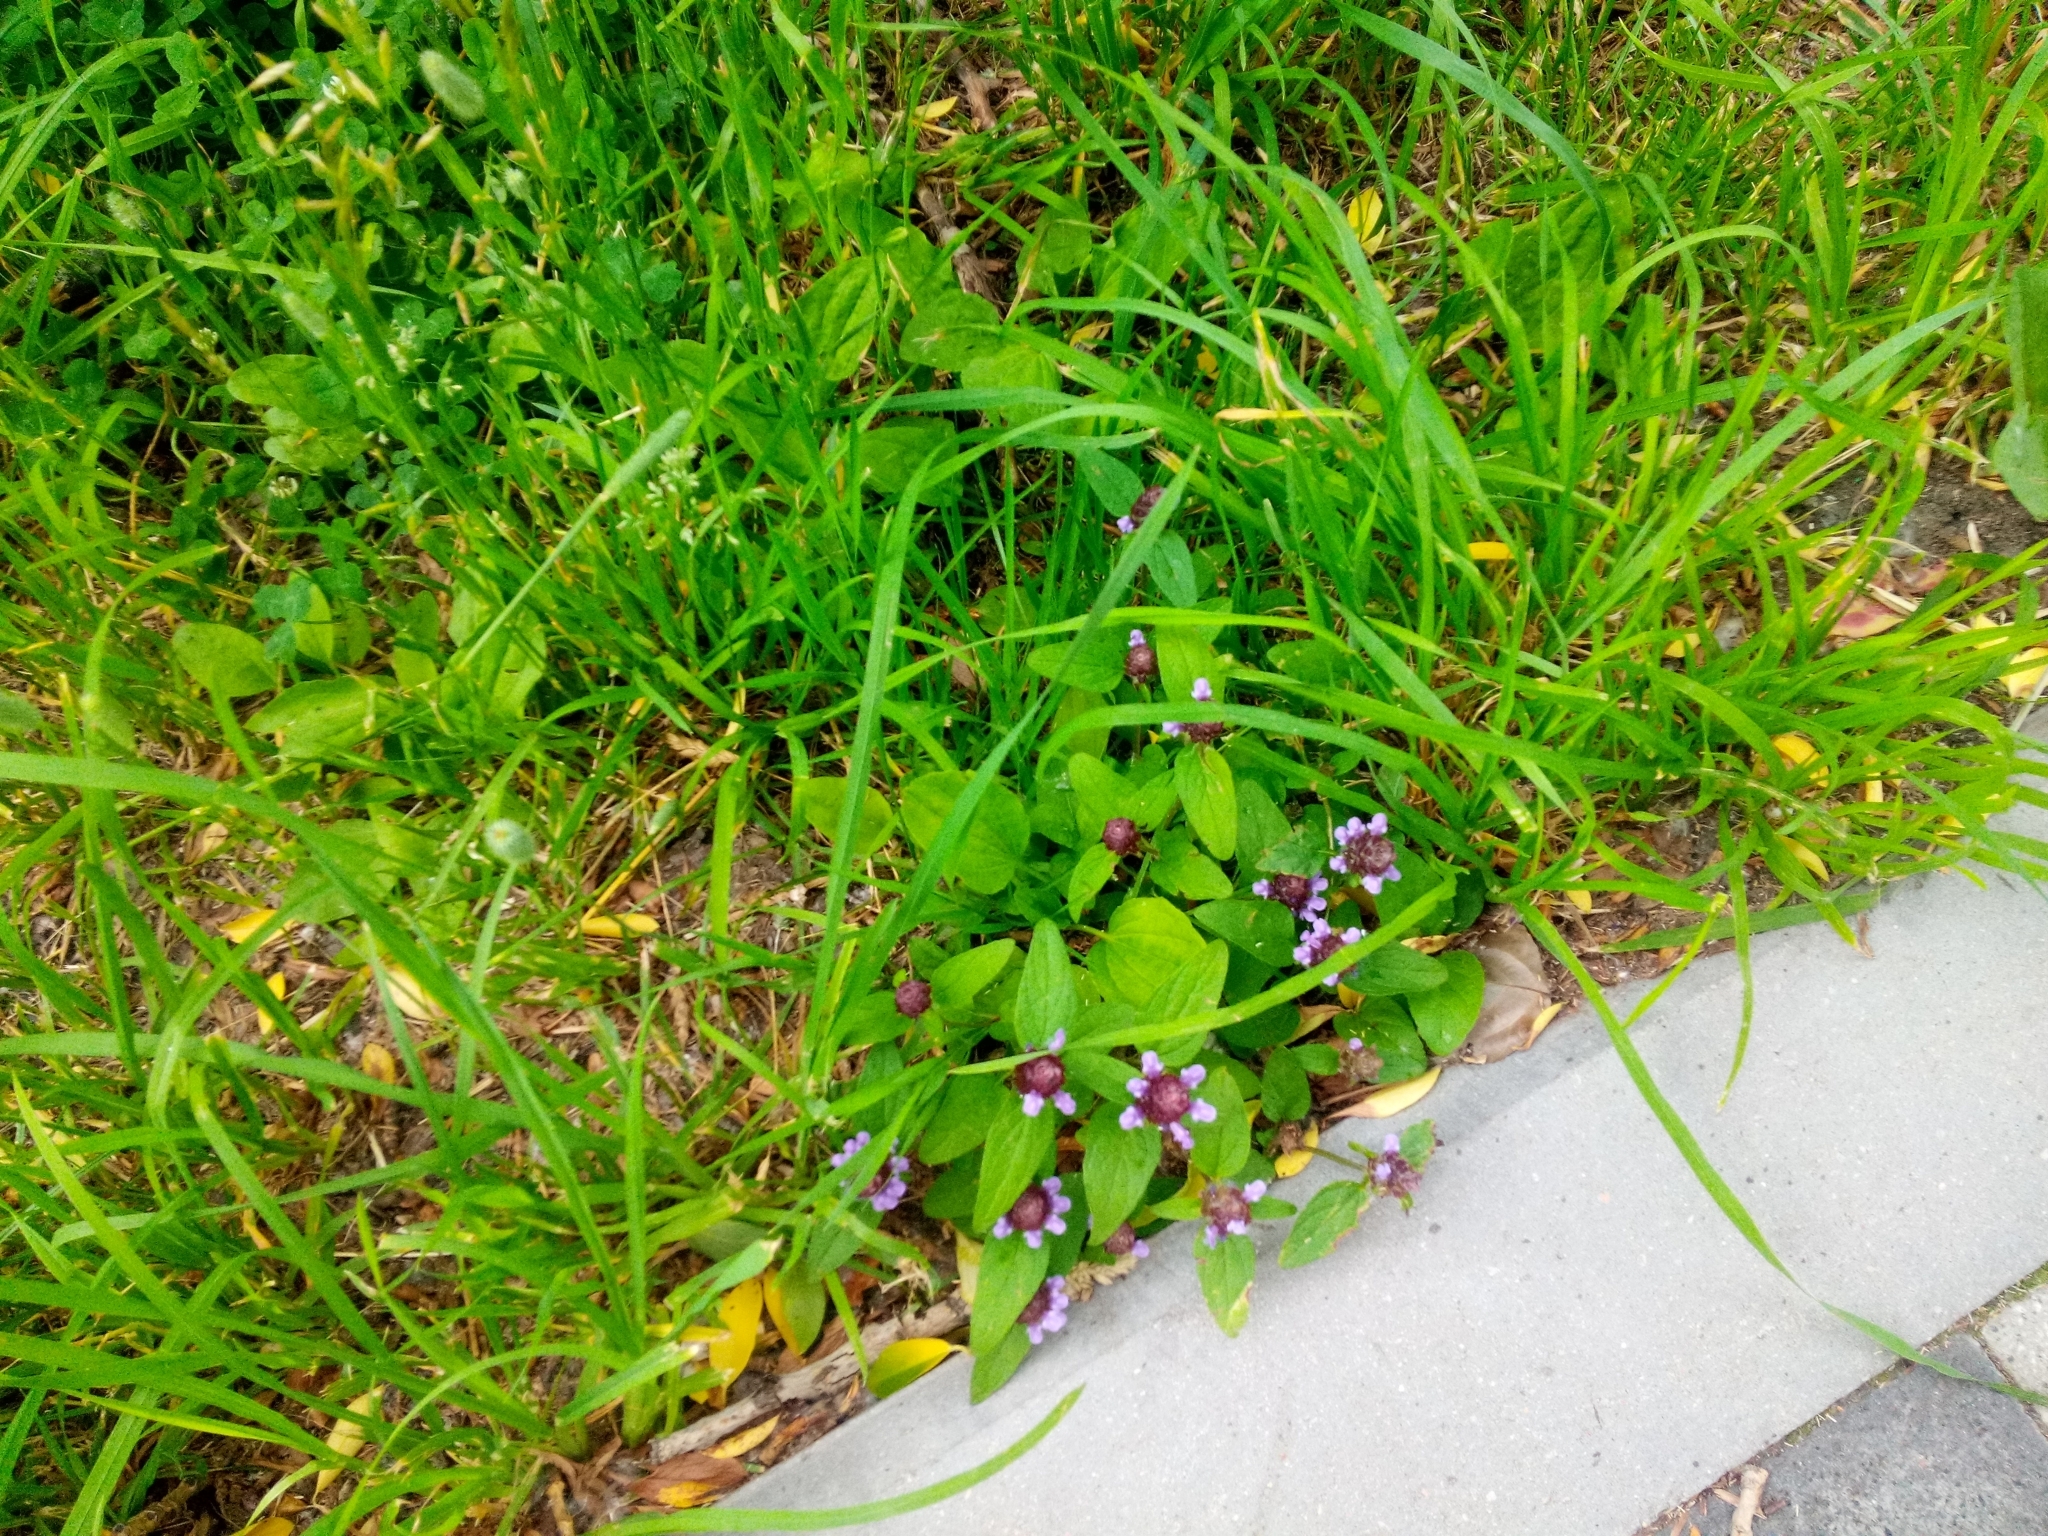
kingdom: Plantae
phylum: Tracheophyta
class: Magnoliopsida
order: Lamiales
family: Lamiaceae
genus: Prunella
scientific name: Prunella vulgaris
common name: Heal-all
